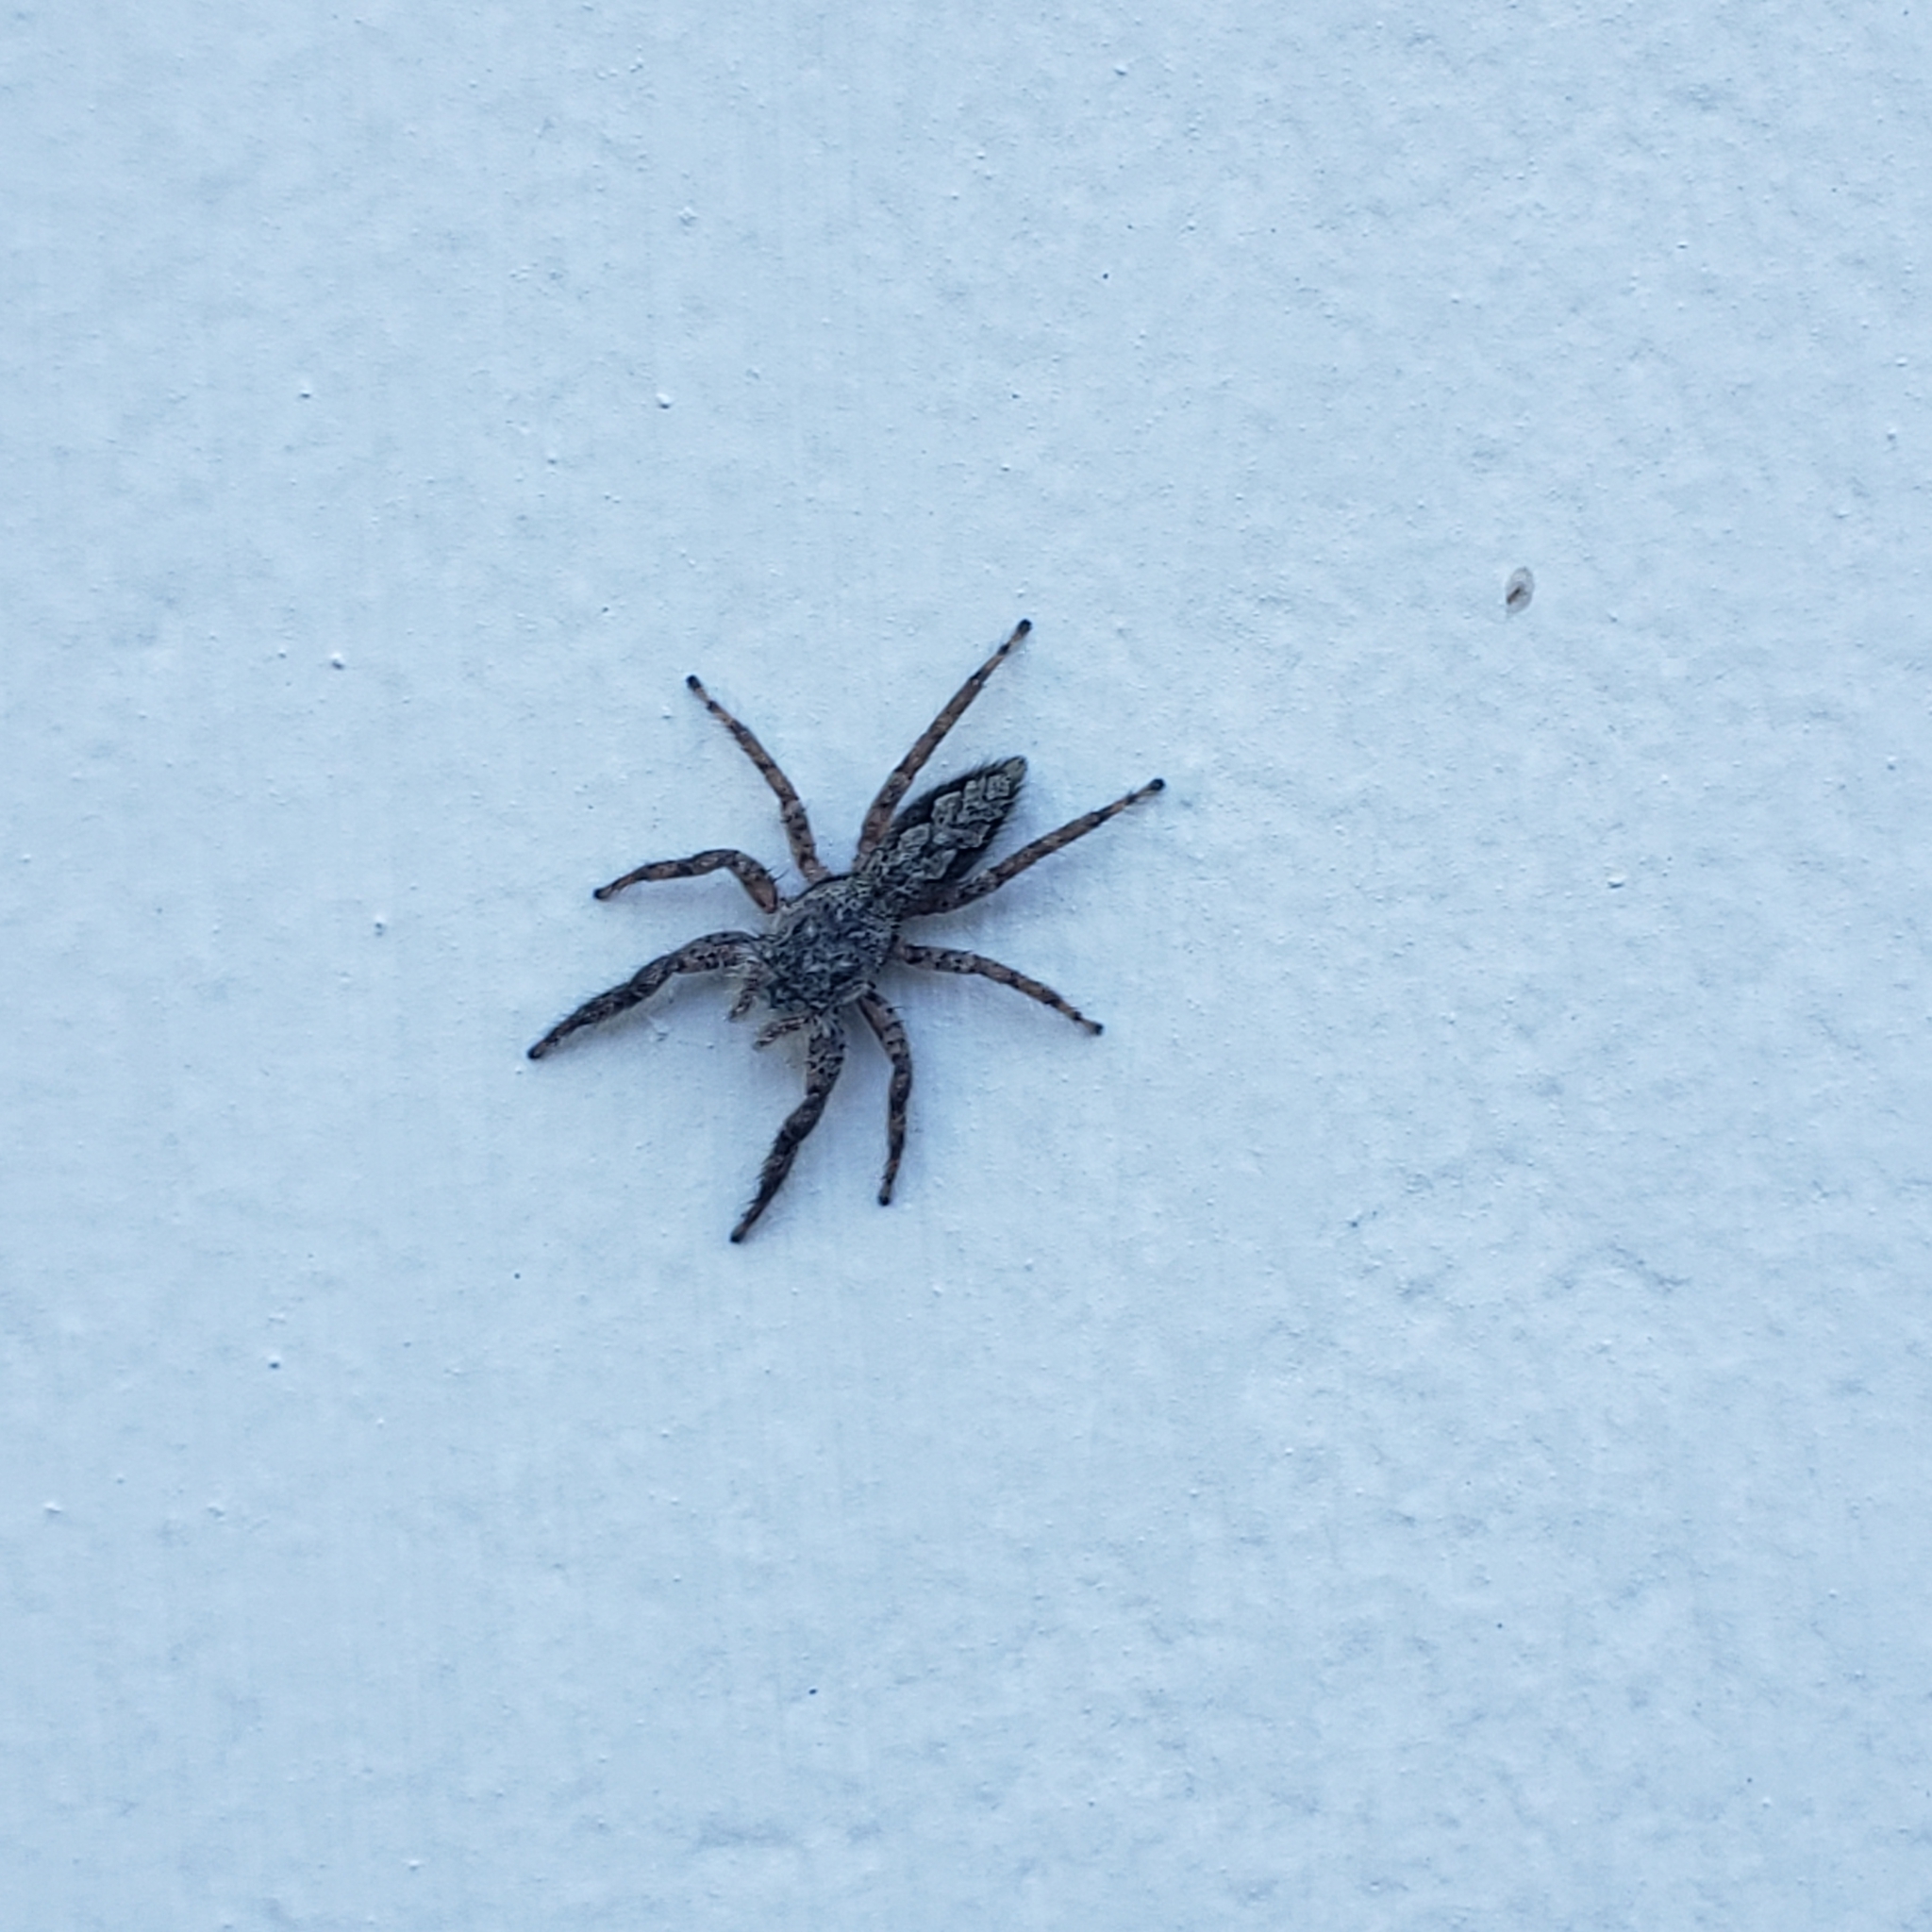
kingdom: Animalia
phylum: Arthropoda
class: Arachnida
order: Araneae
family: Salticidae
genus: Platycryptus
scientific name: Platycryptus undatus
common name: Tan jumping spider
